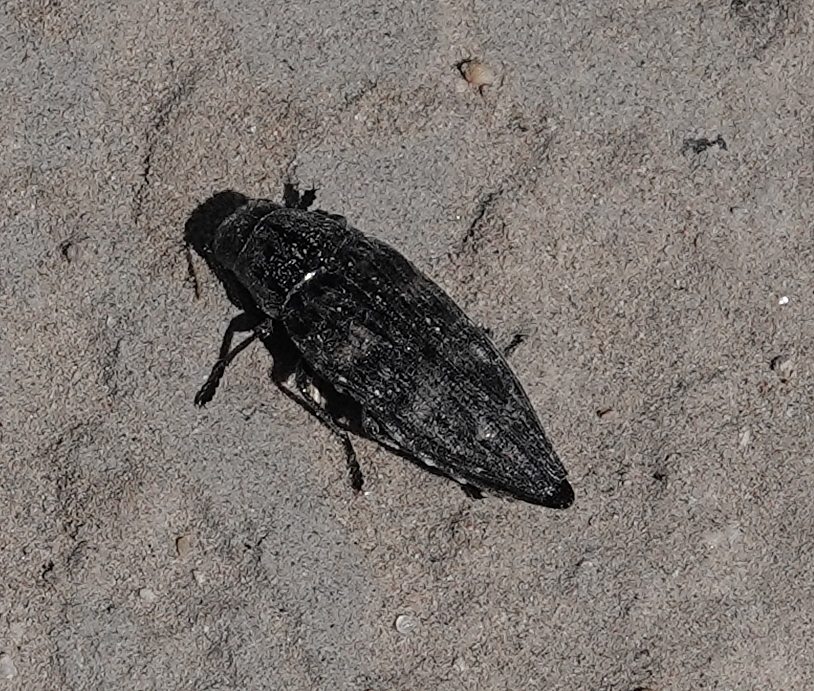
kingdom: Animalia
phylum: Arthropoda
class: Insecta
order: Coleoptera
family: Buprestidae
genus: Buprestis
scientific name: Buprestis consularis
